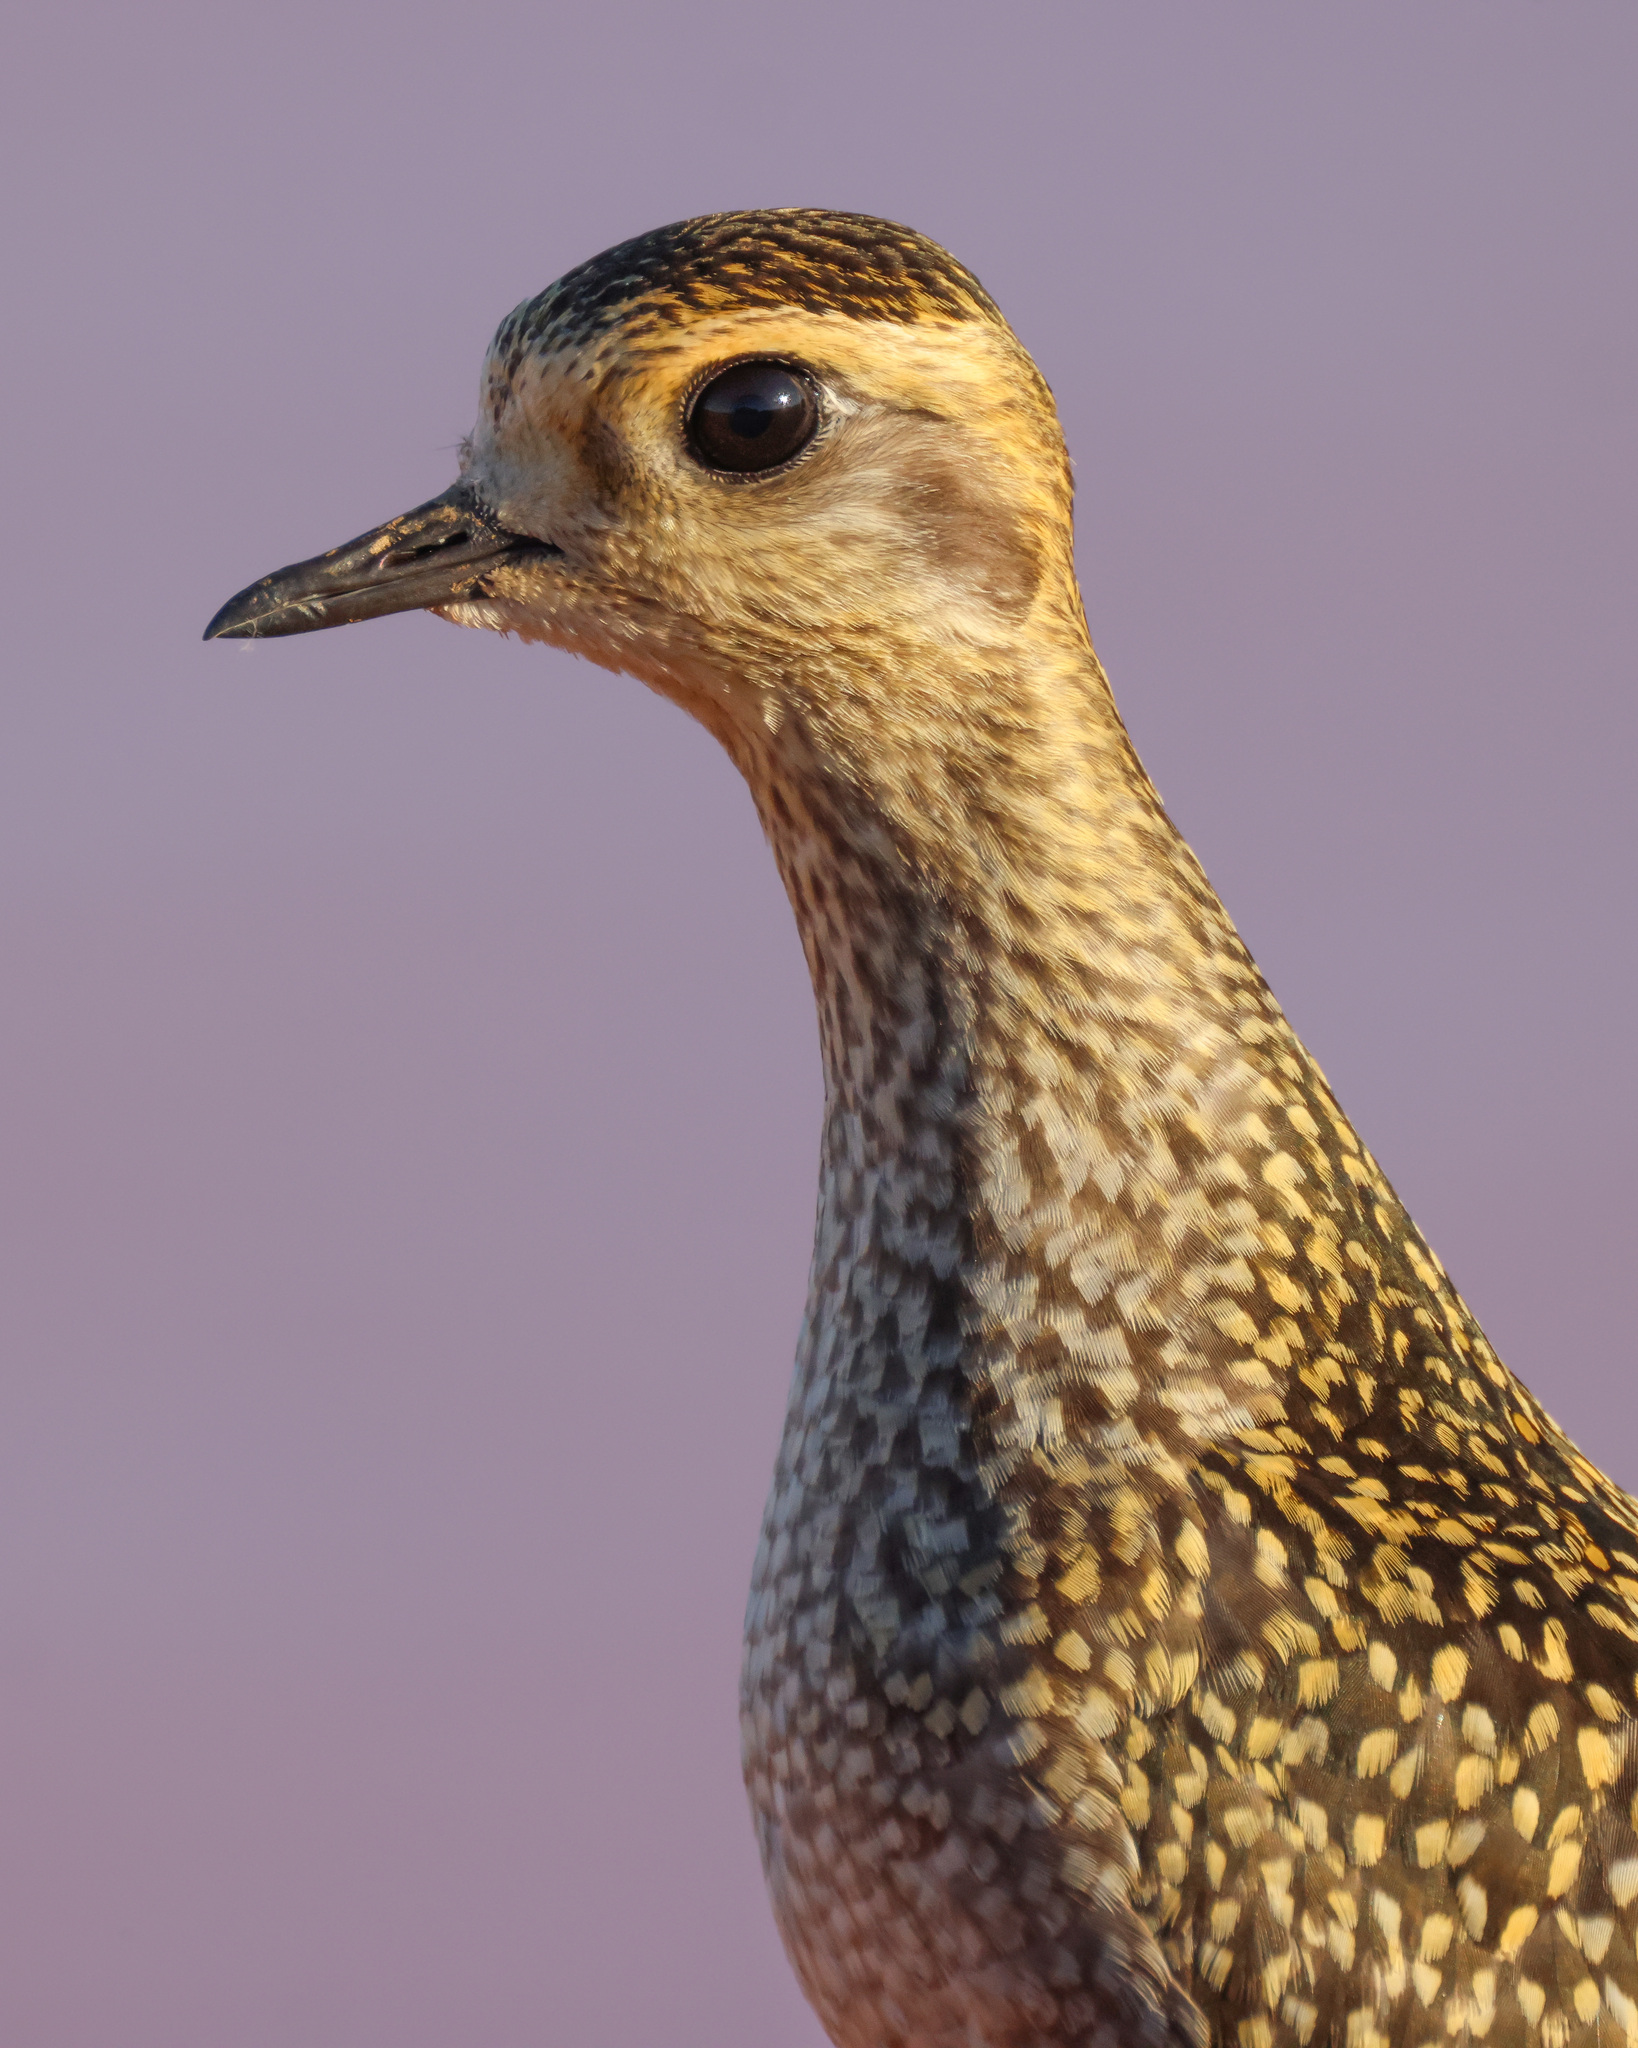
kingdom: Animalia
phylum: Chordata
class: Aves
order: Charadriiformes
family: Charadriidae
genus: Pluvialis
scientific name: Pluvialis dominica
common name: American golden plover
